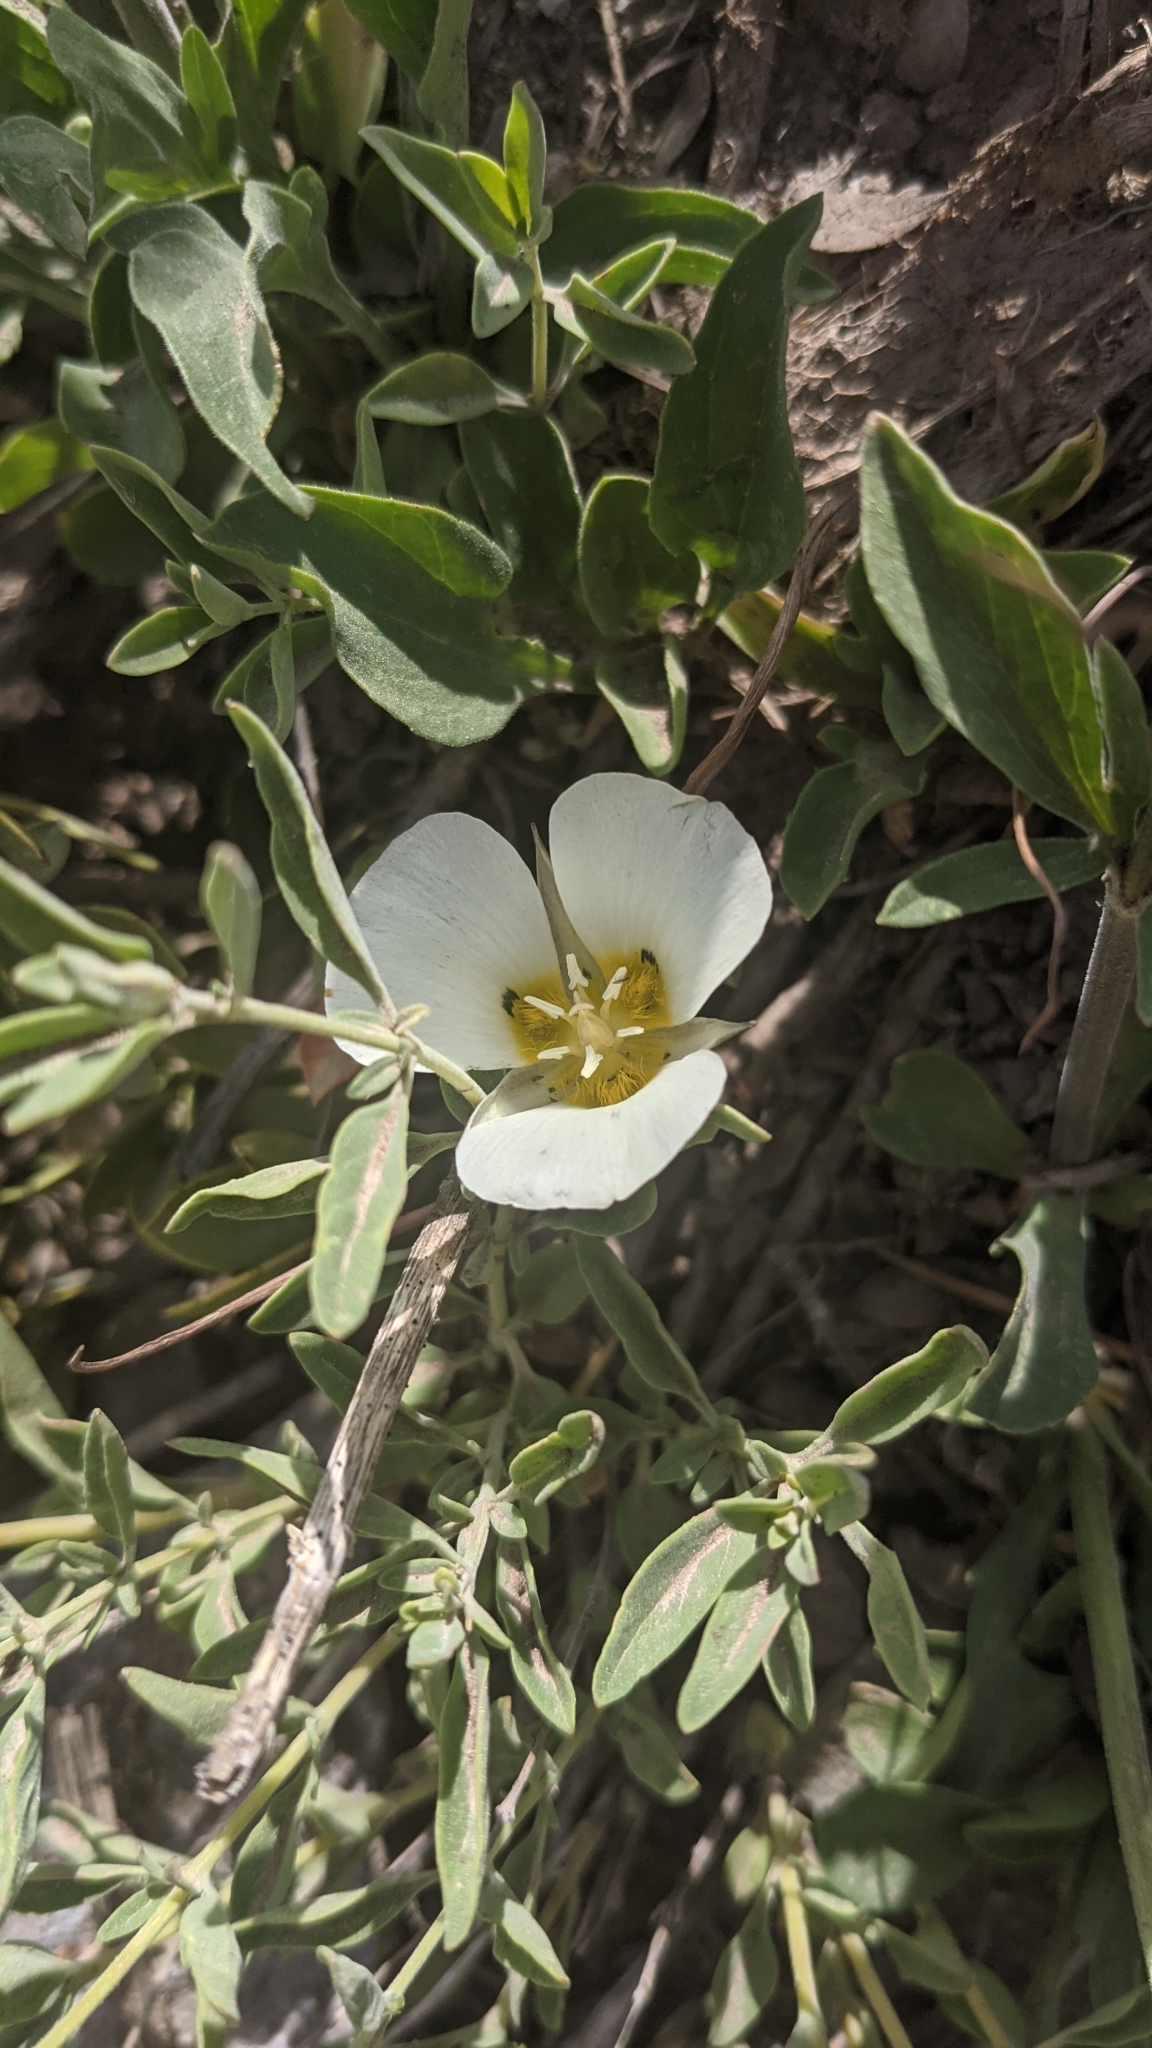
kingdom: Plantae
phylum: Tracheophyta
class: Liliopsida
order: Liliales
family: Liliaceae
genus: Calochortus
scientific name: Calochortus leichtlinii
